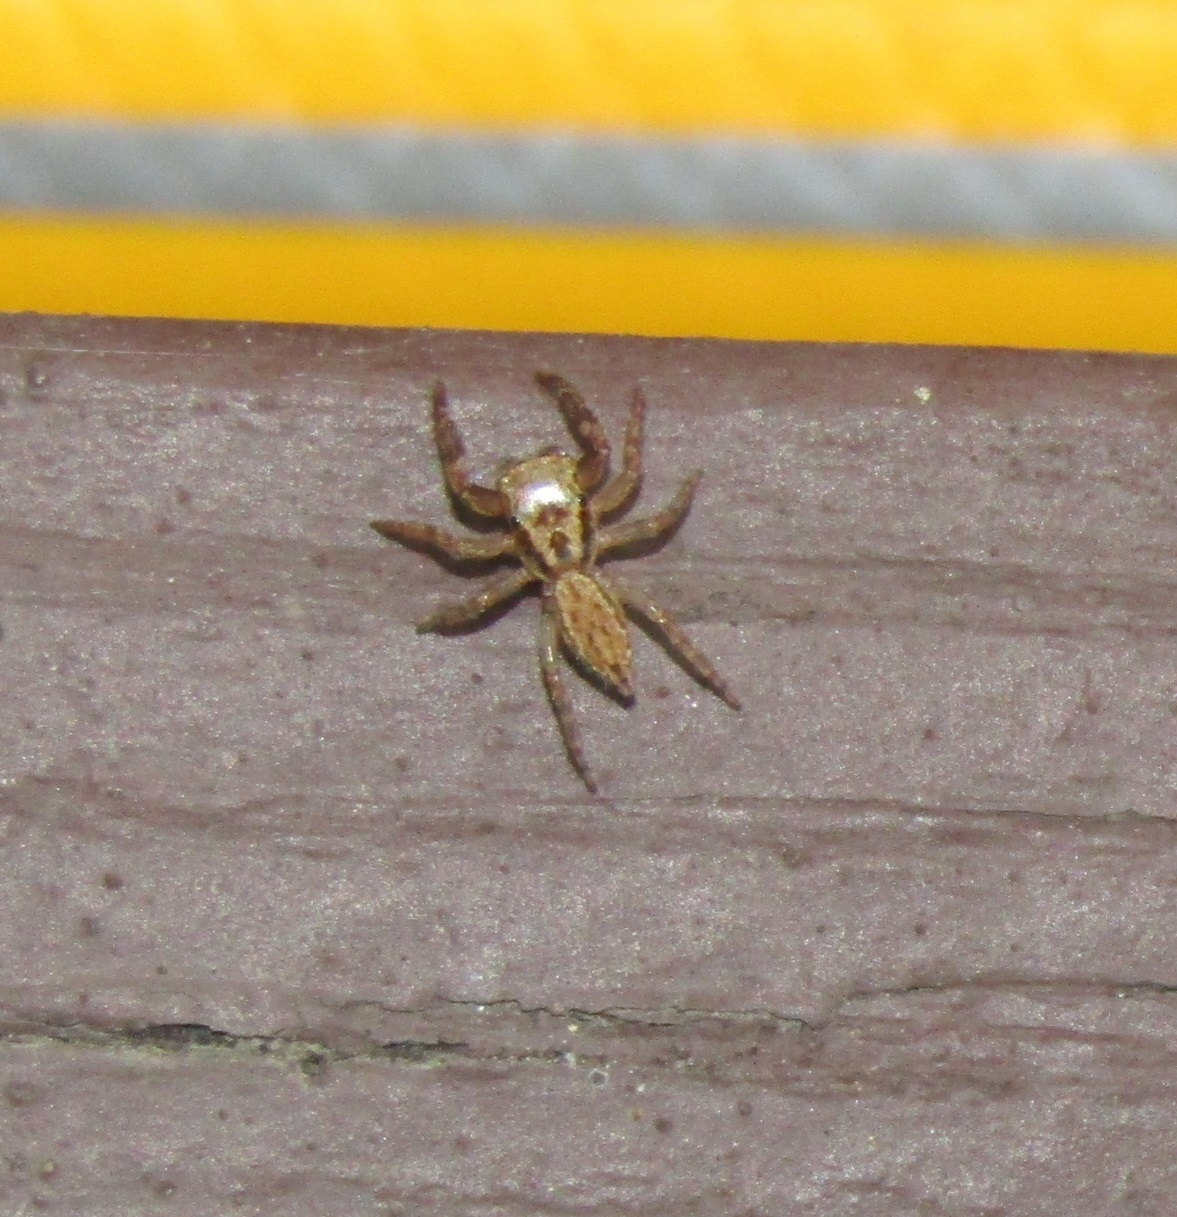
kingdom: Animalia
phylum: Arthropoda
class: Arachnida
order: Araneae
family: Salticidae
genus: Trite
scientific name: Trite auricoma
